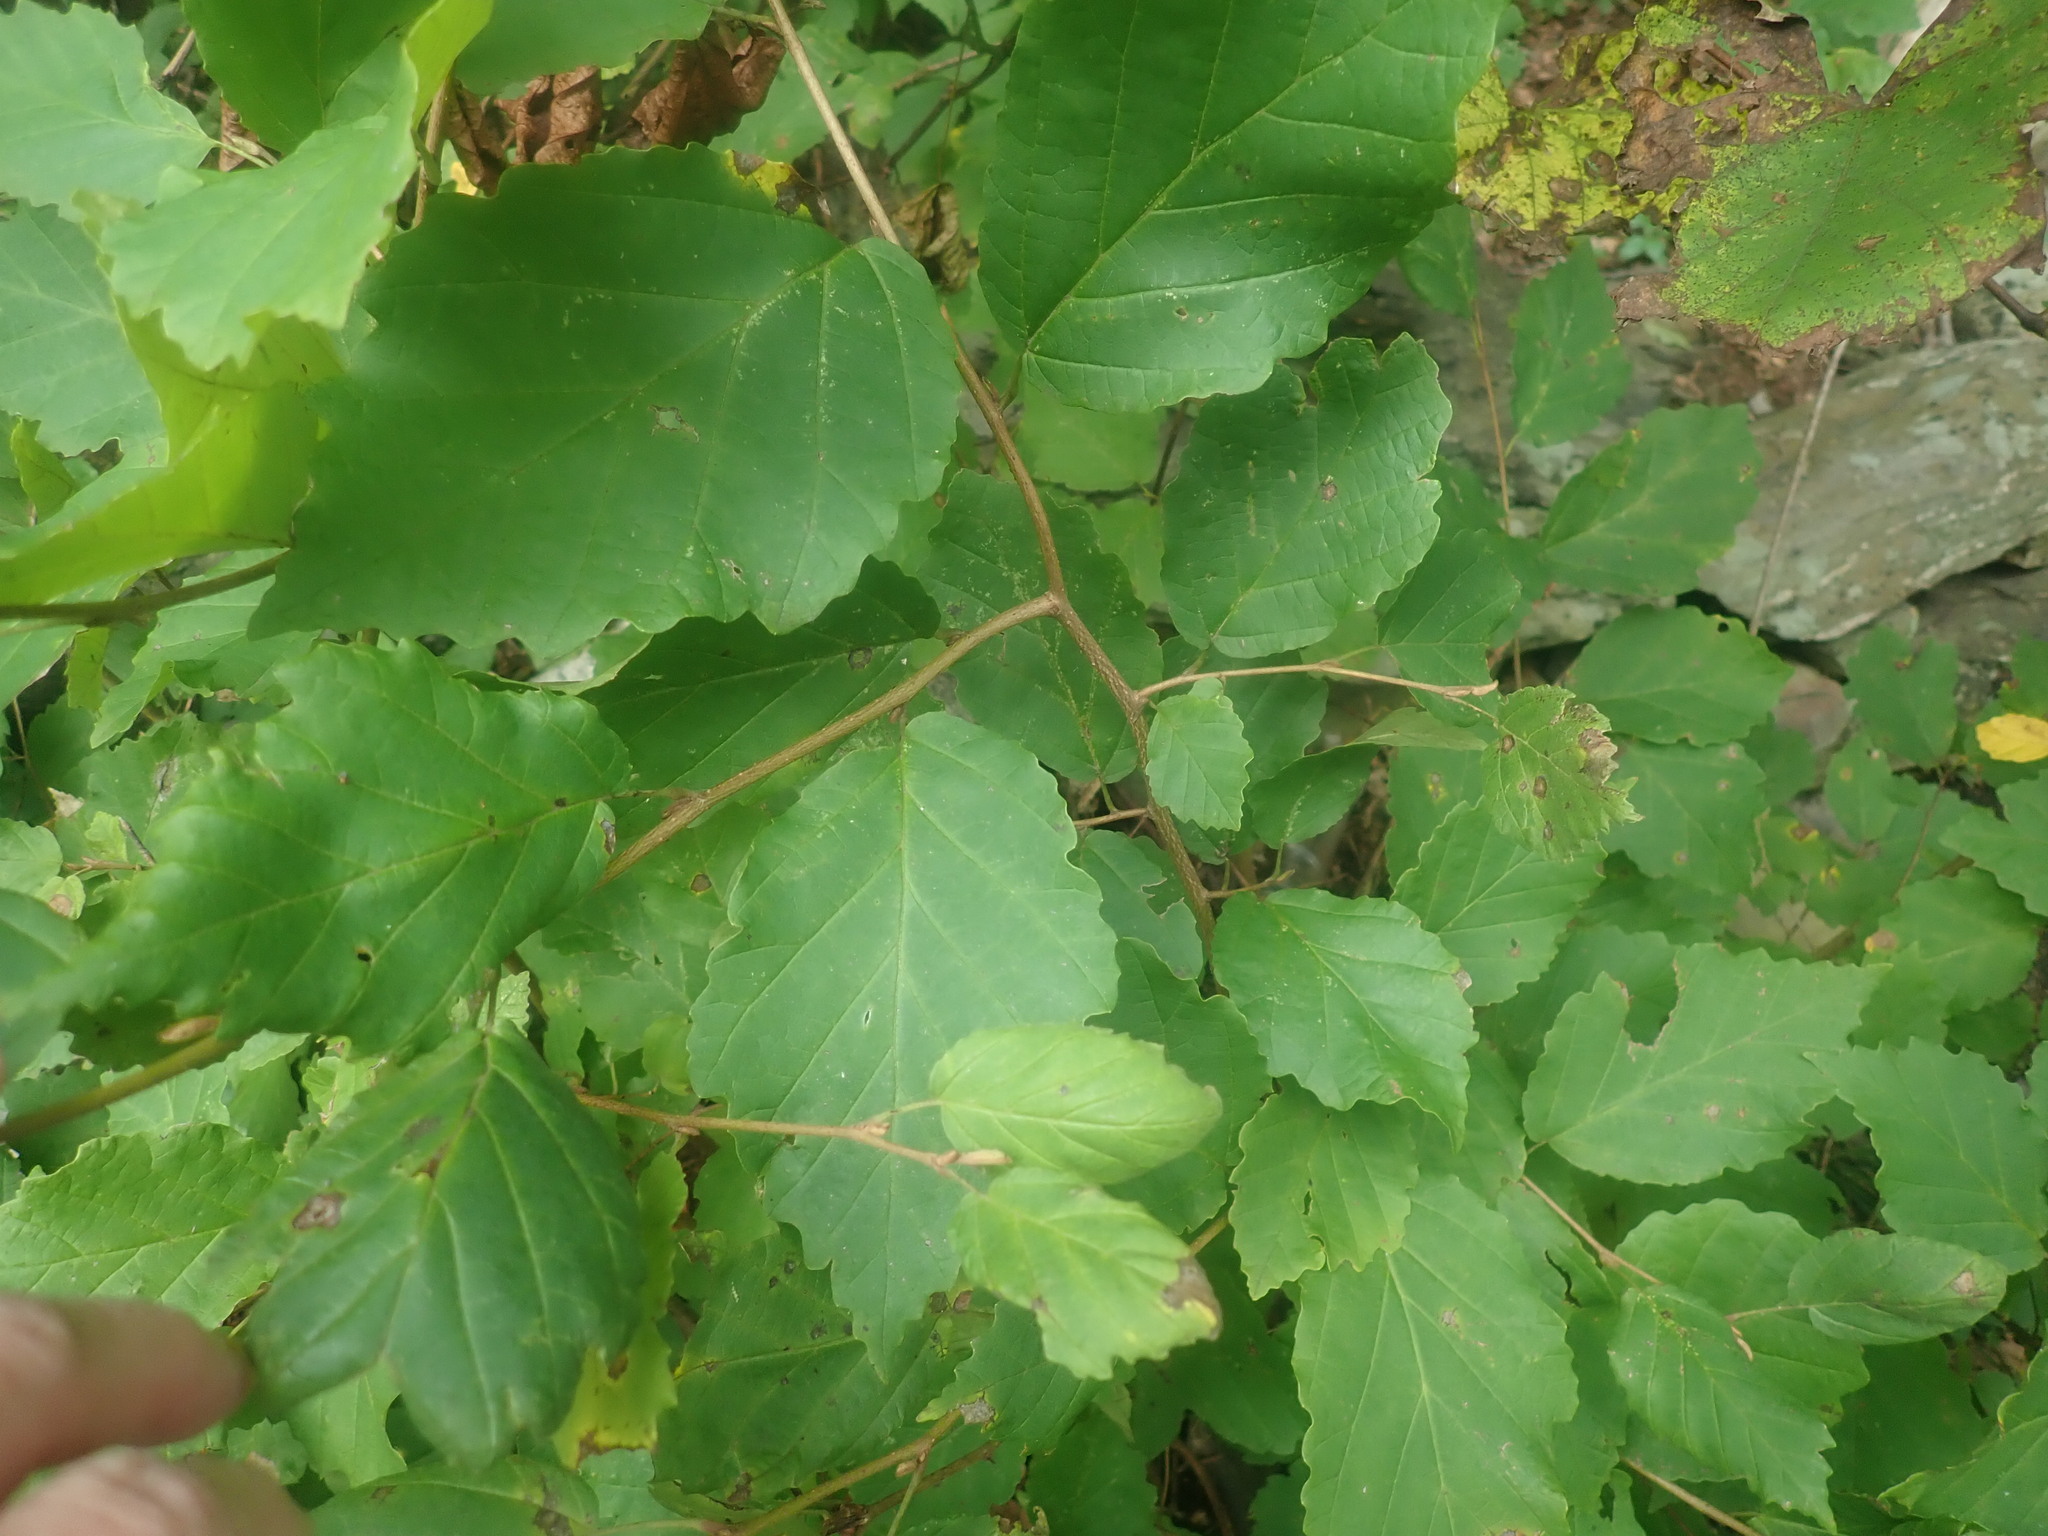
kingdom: Plantae
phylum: Tracheophyta
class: Magnoliopsida
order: Saxifragales
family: Hamamelidaceae
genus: Hamamelis
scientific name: Hamamelis virginiana
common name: Witch-hazel
